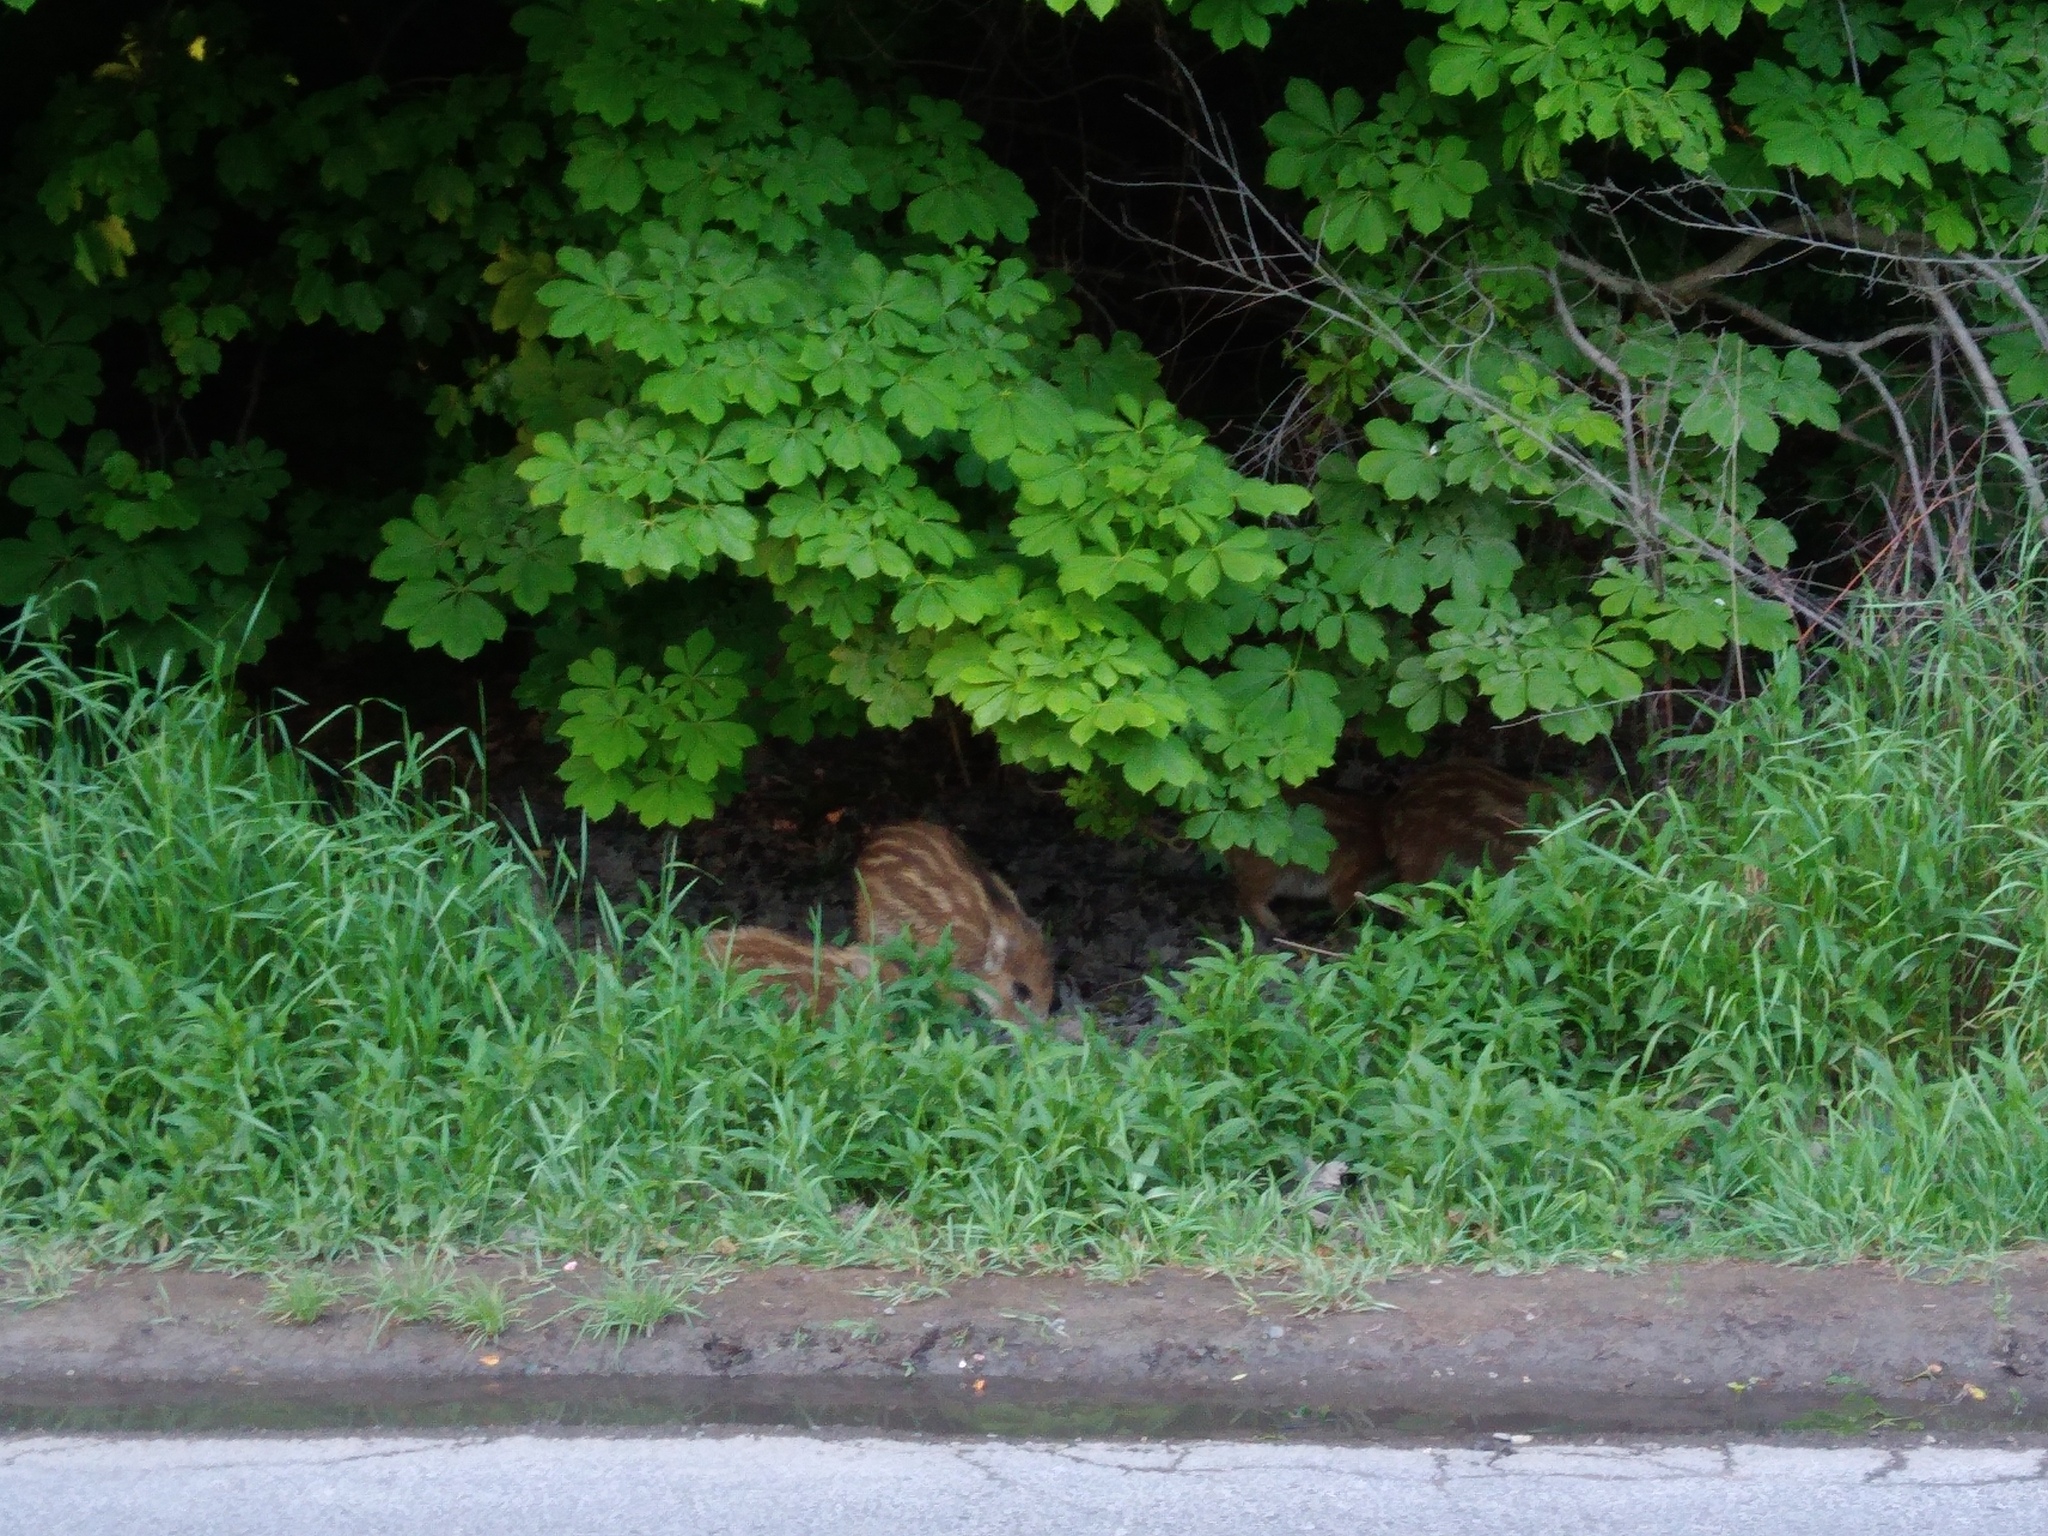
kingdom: Animalia
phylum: Chordata
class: Mammalia
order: Artiodactyla
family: Suidae
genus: Sus
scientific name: Sus scrofa
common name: Wild boar
